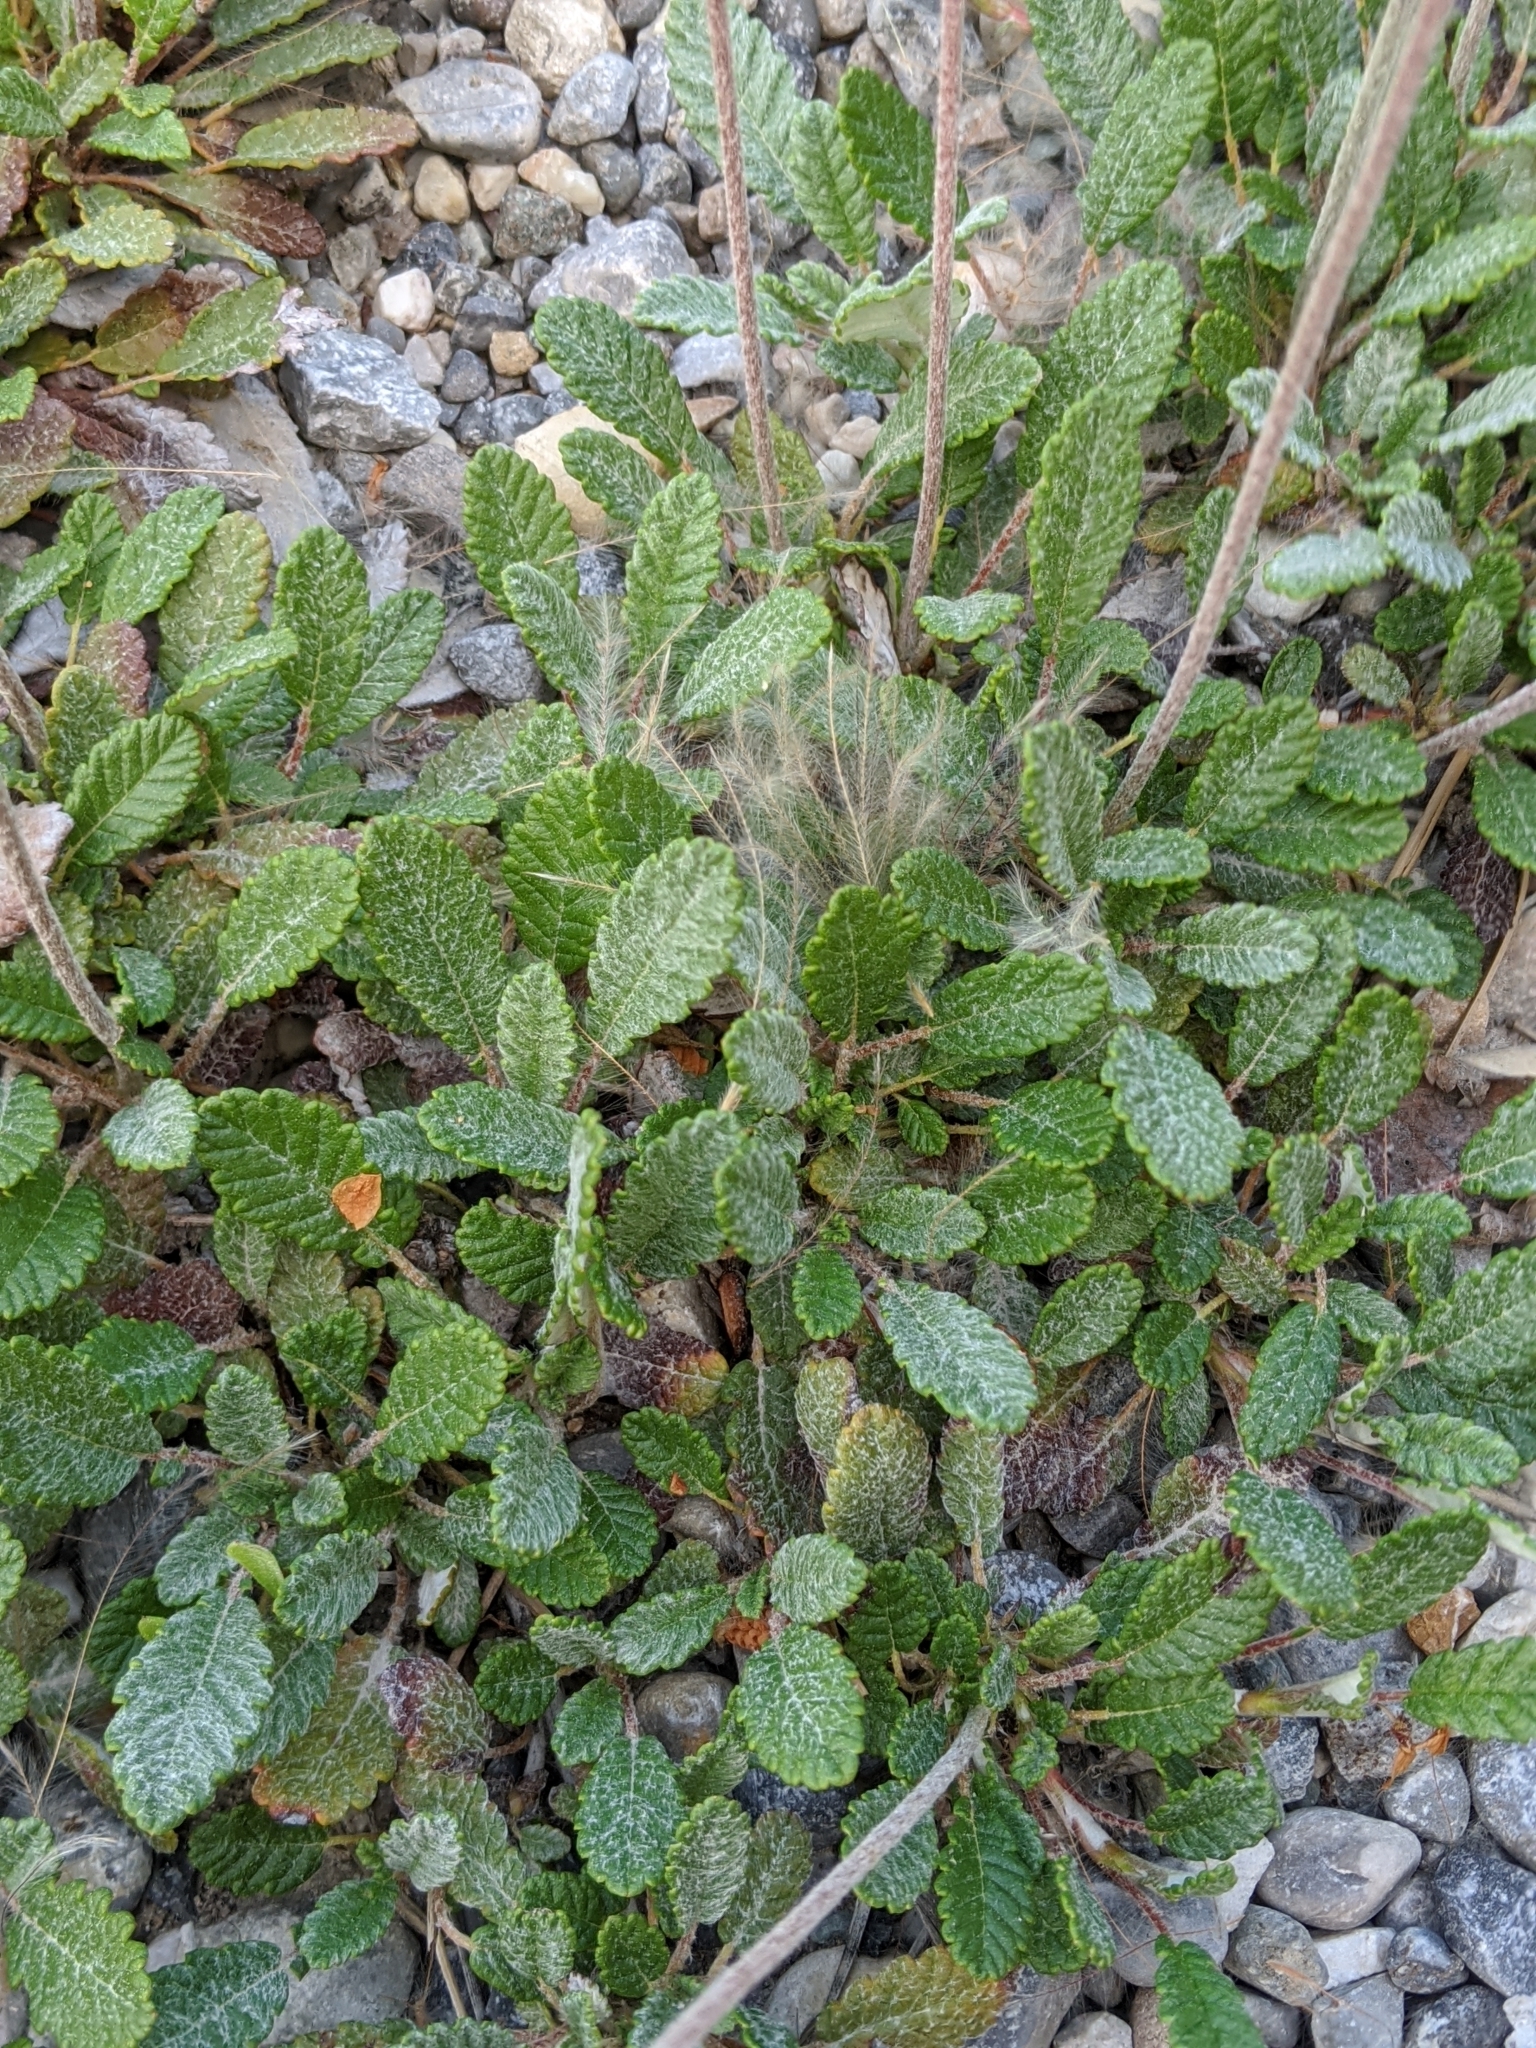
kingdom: Plantae
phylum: Tracheophyta
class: Magnoliopsida
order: Rosales
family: Rosaceae
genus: Dryas
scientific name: Dryas drummondii
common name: Drummond's dryad
